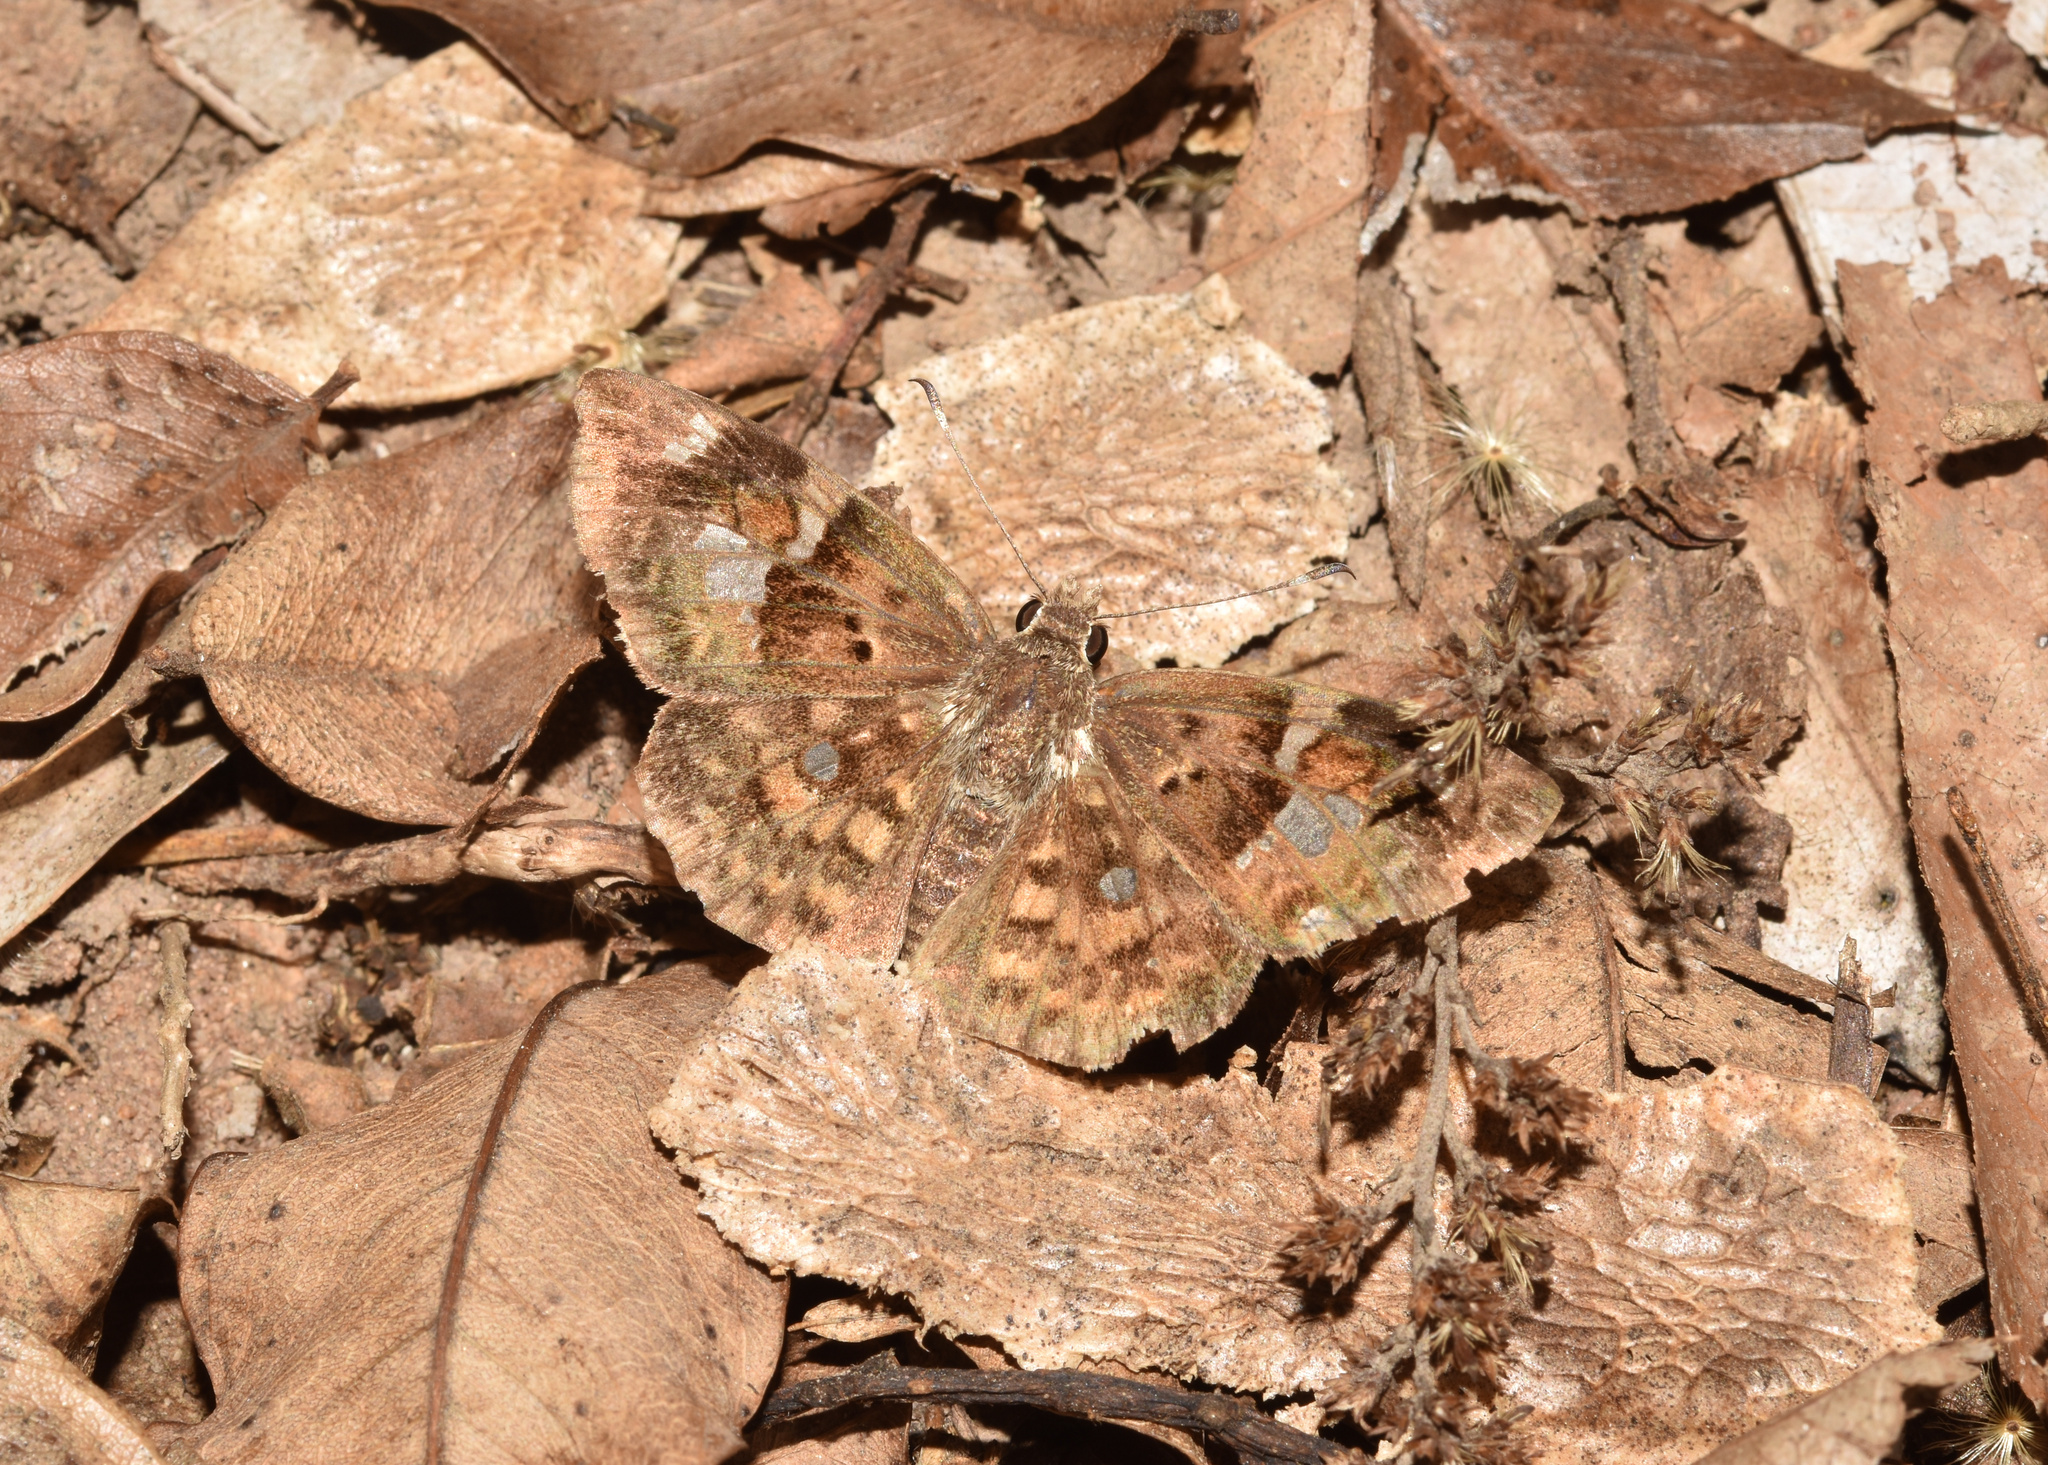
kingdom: Animalia
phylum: Arthropoda
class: Insecta
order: Lepidoptera
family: Hesperiidae
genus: Sarangesa
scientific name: Sarangesa motozi
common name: Forest elfin
